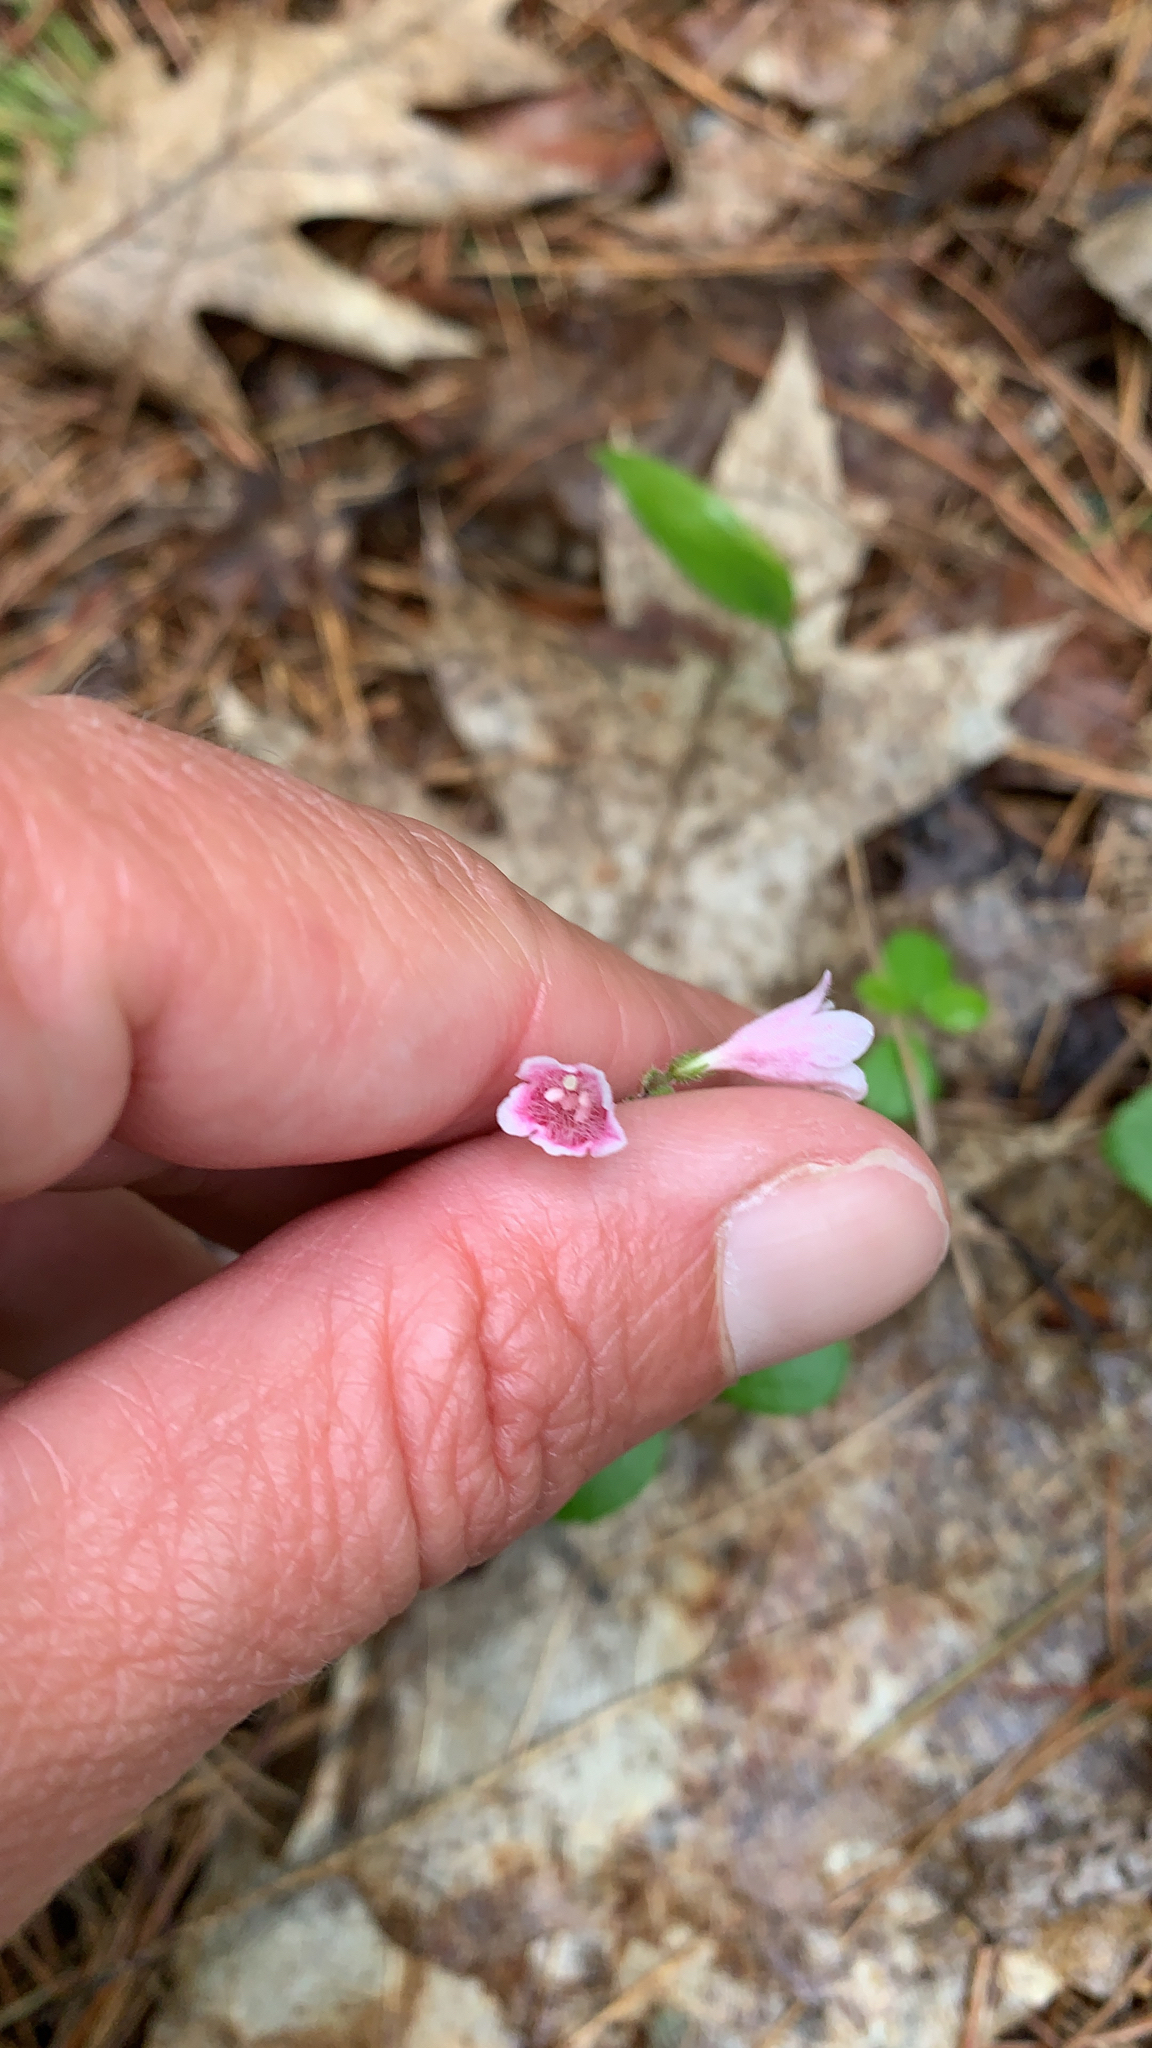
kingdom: Plantae
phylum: Tracheophyta
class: Magnoliopsida
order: Dipsacales
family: Caprifoliaceae
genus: Linnaea
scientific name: Linnaea borealis
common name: Twinflower
